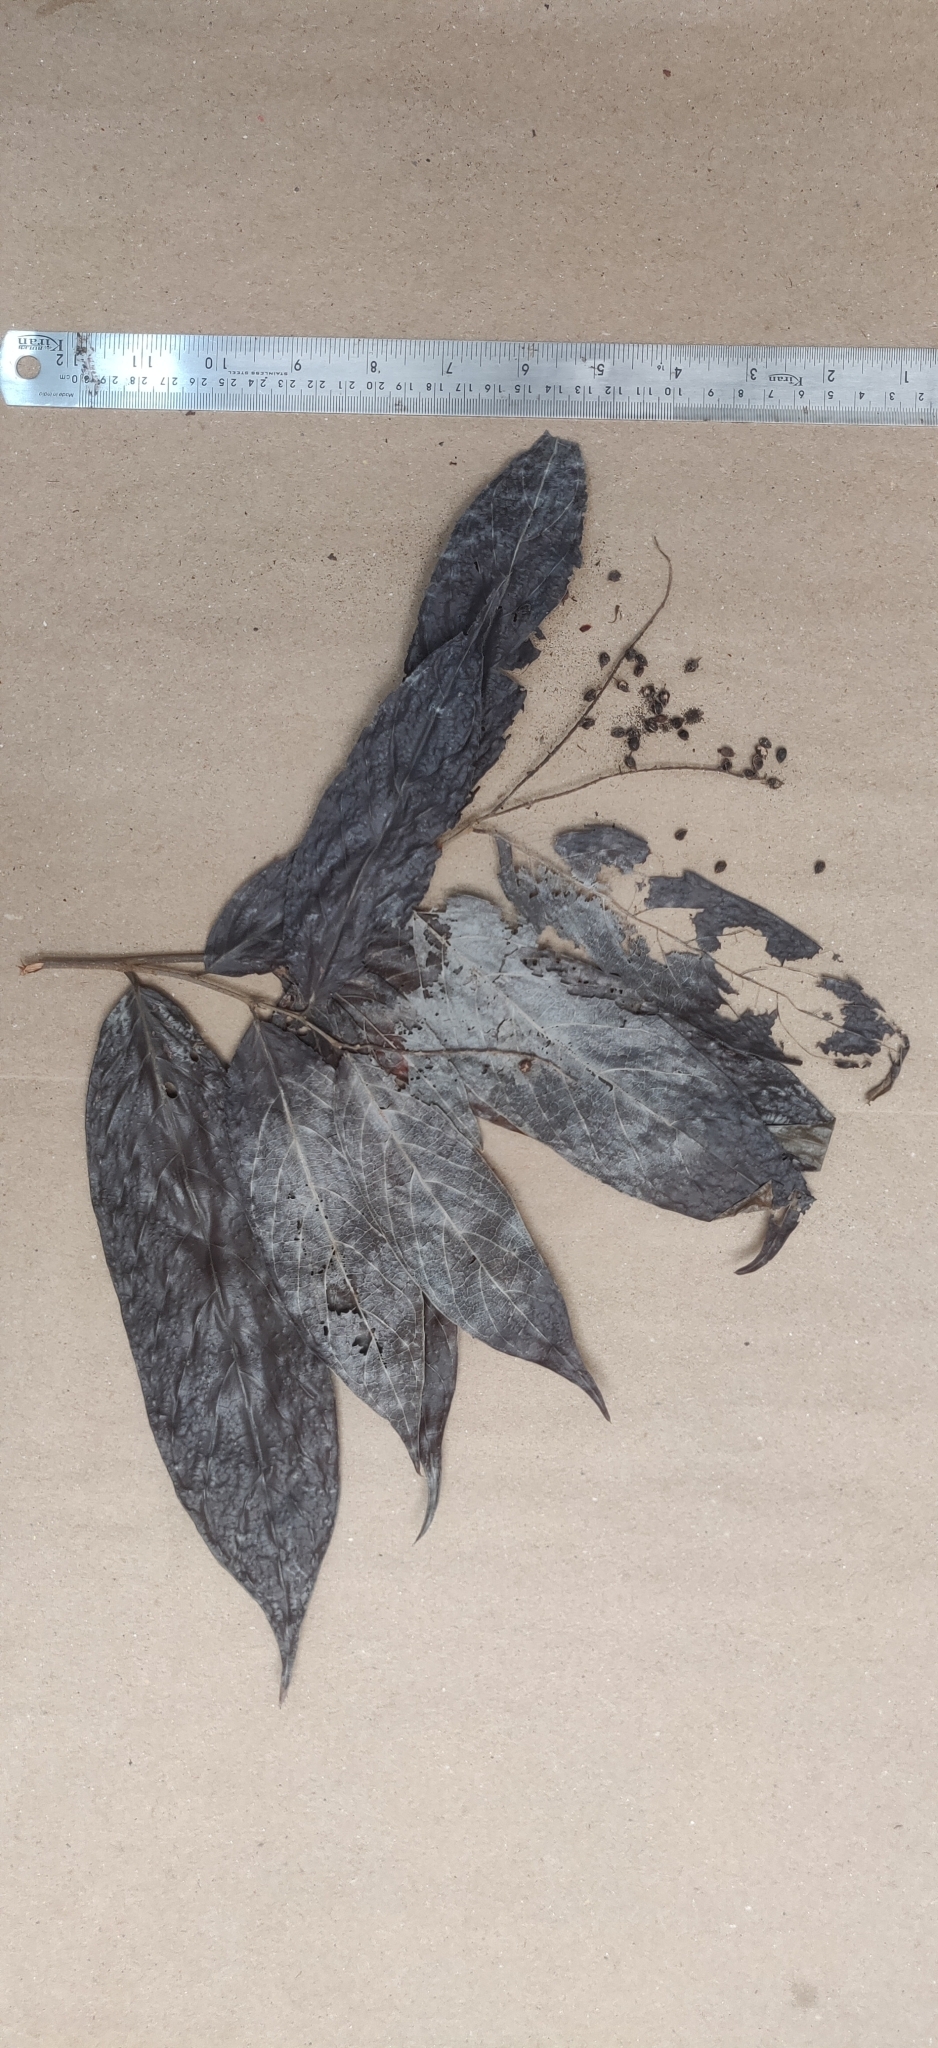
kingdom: Plantae
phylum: Tracheophyta
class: Magnoliopsida
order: Malpighiales
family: Phyllanthaceae
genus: Antidesma
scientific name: Antidesma montanum
